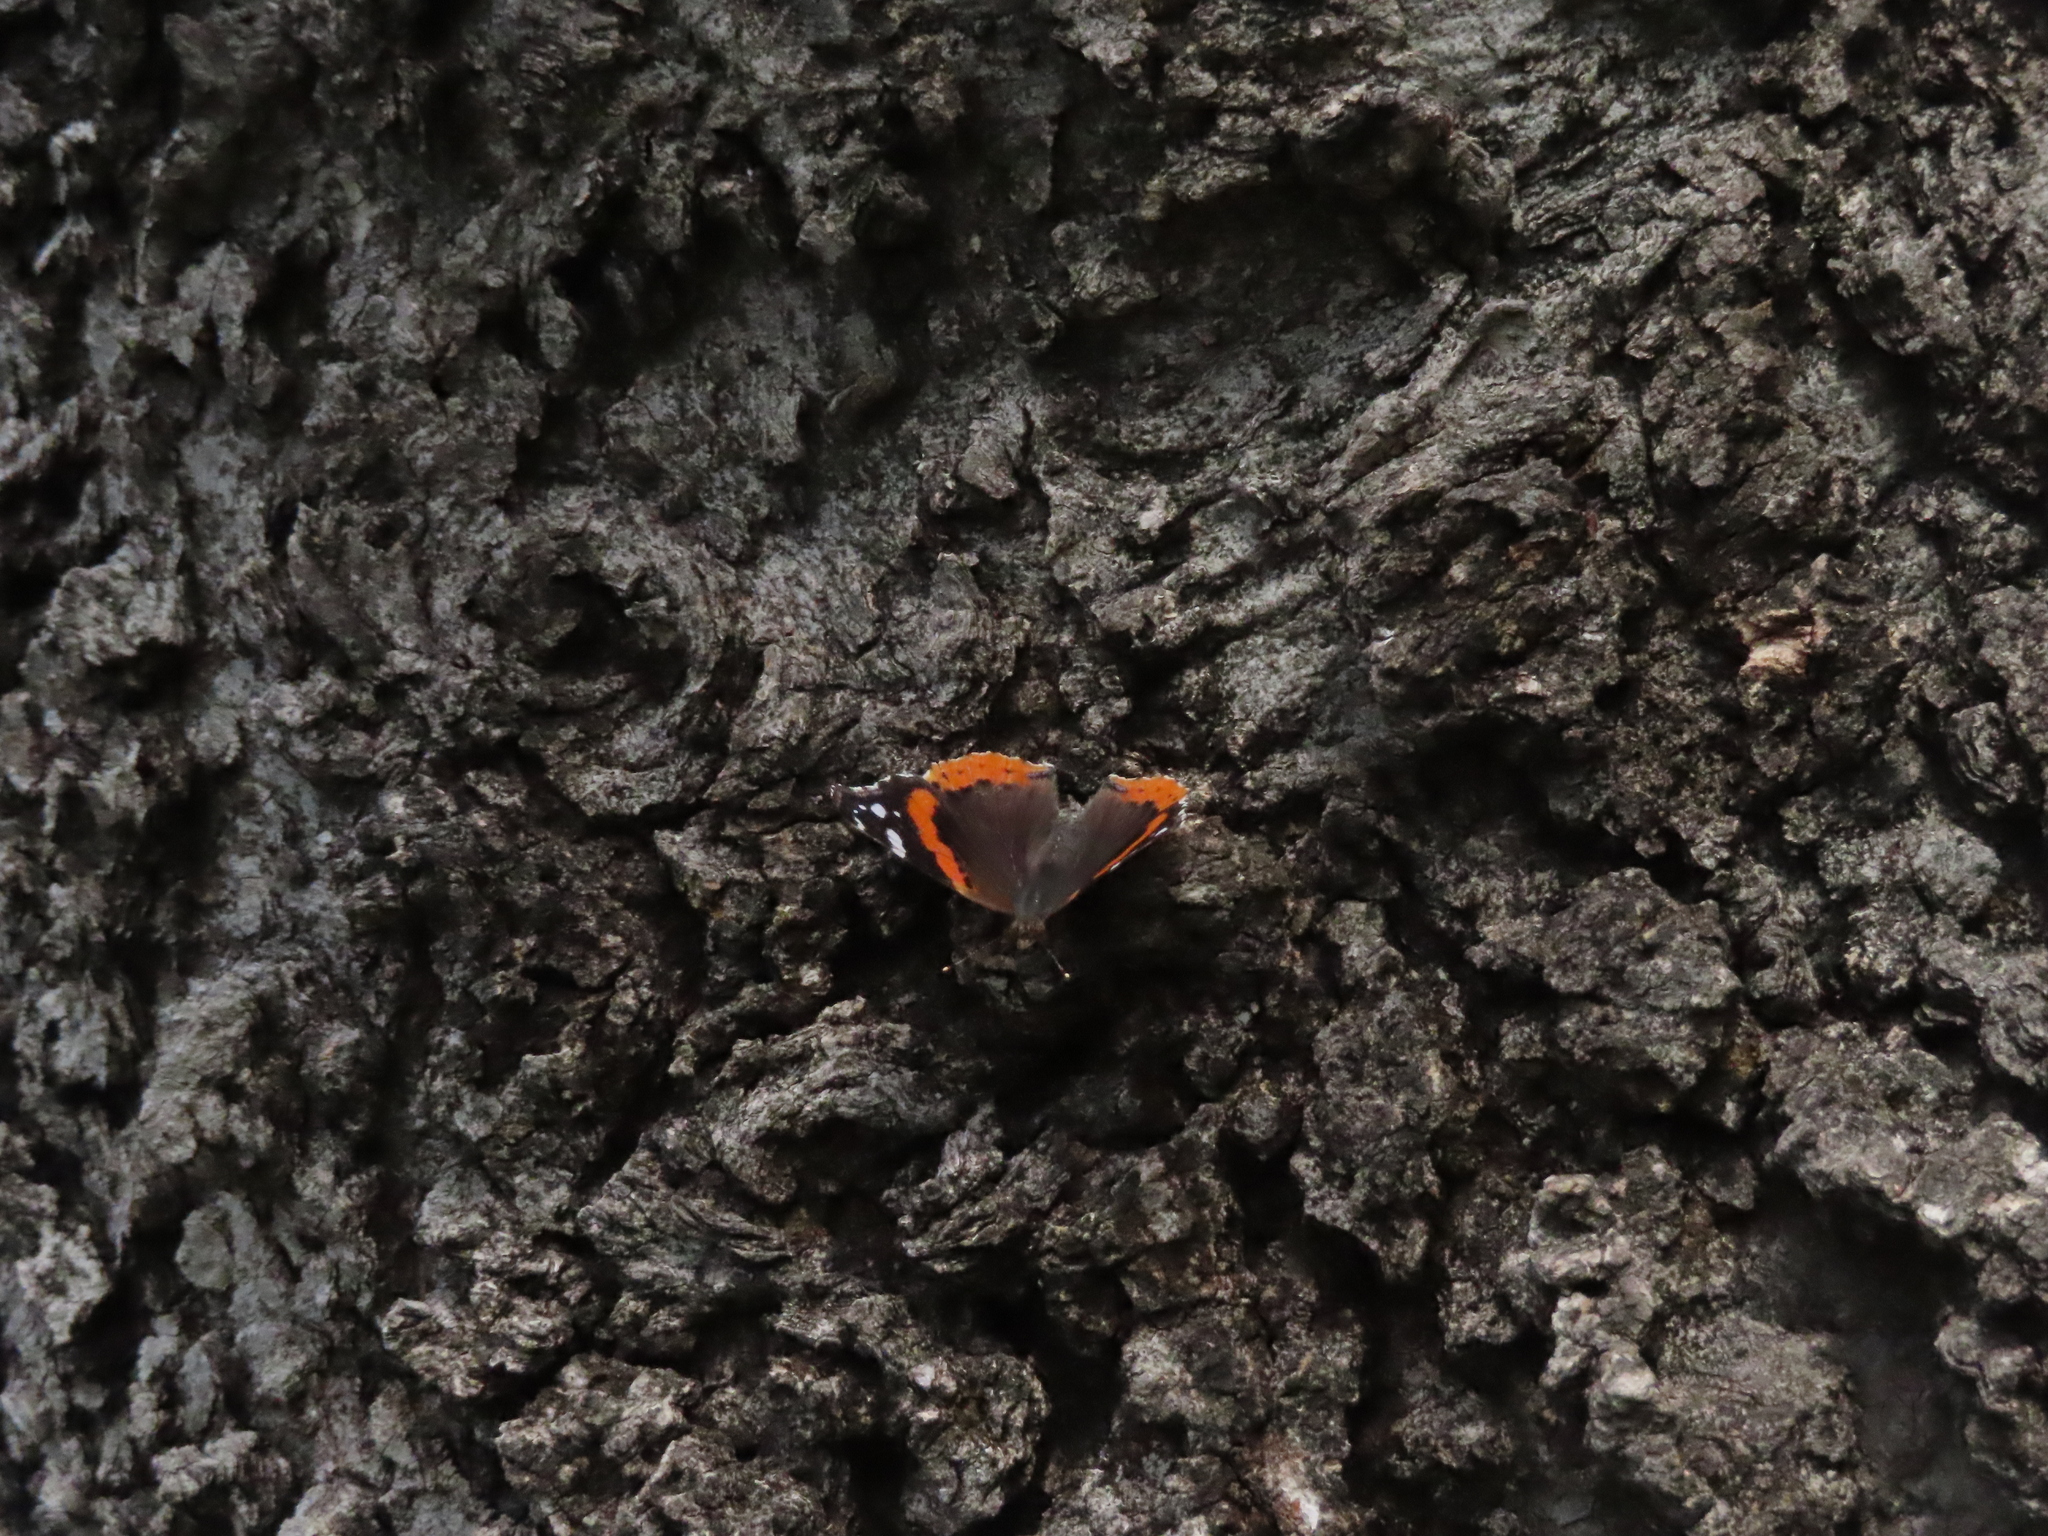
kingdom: Animalia
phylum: Arthropoda
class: Insecta
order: Lepidoptera
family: Nymphalidae
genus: Vanessa
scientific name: Vanessa atalanta
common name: Red admiral
